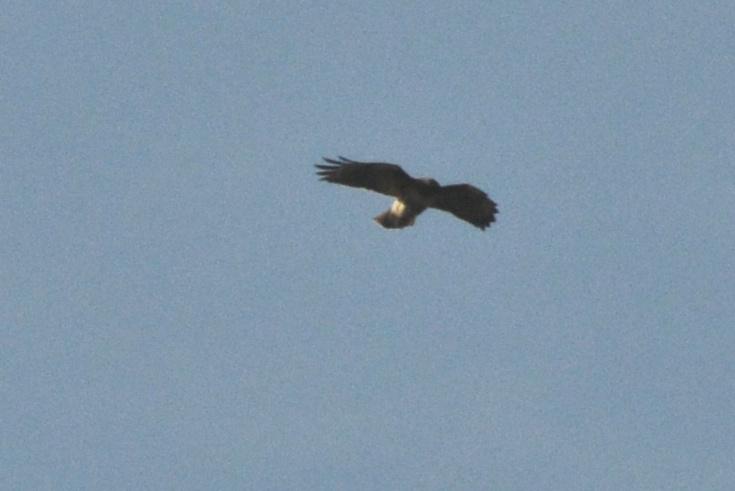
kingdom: Animalia
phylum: Chordata
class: Aves
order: Accipitriformes
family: Accipitridae
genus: Buteo
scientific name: Buteo jamaicensis
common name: Red-tailed hawk
